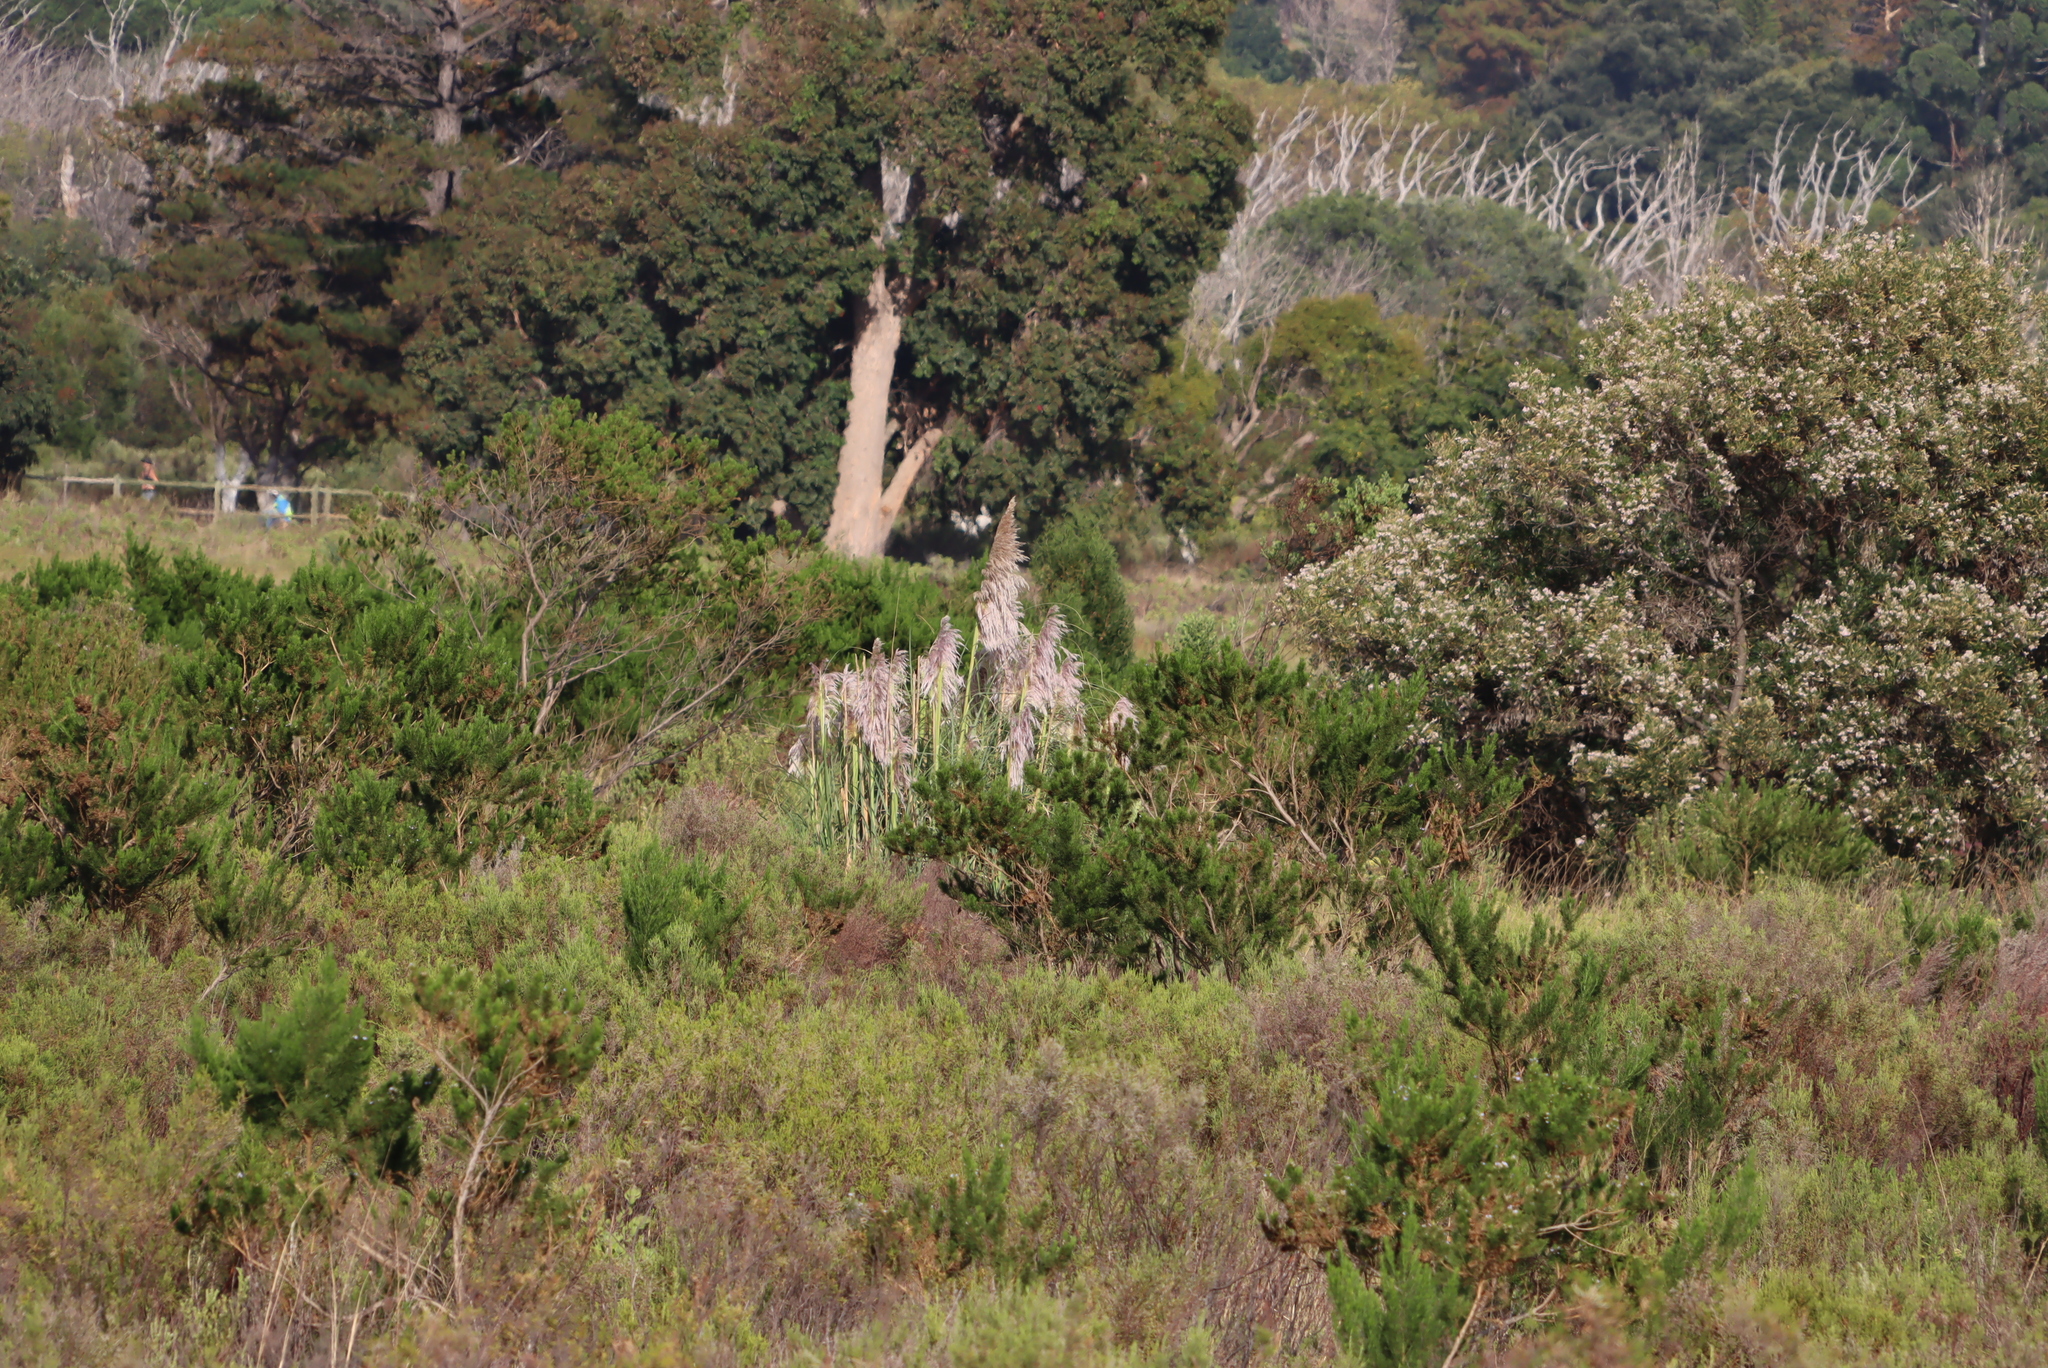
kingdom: Plantae
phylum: Tracheophyta
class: Liliopsida
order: Poales
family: Poaceae
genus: Cortaderia
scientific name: Cortaderia selloana
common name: Uruguayan pampas grass
